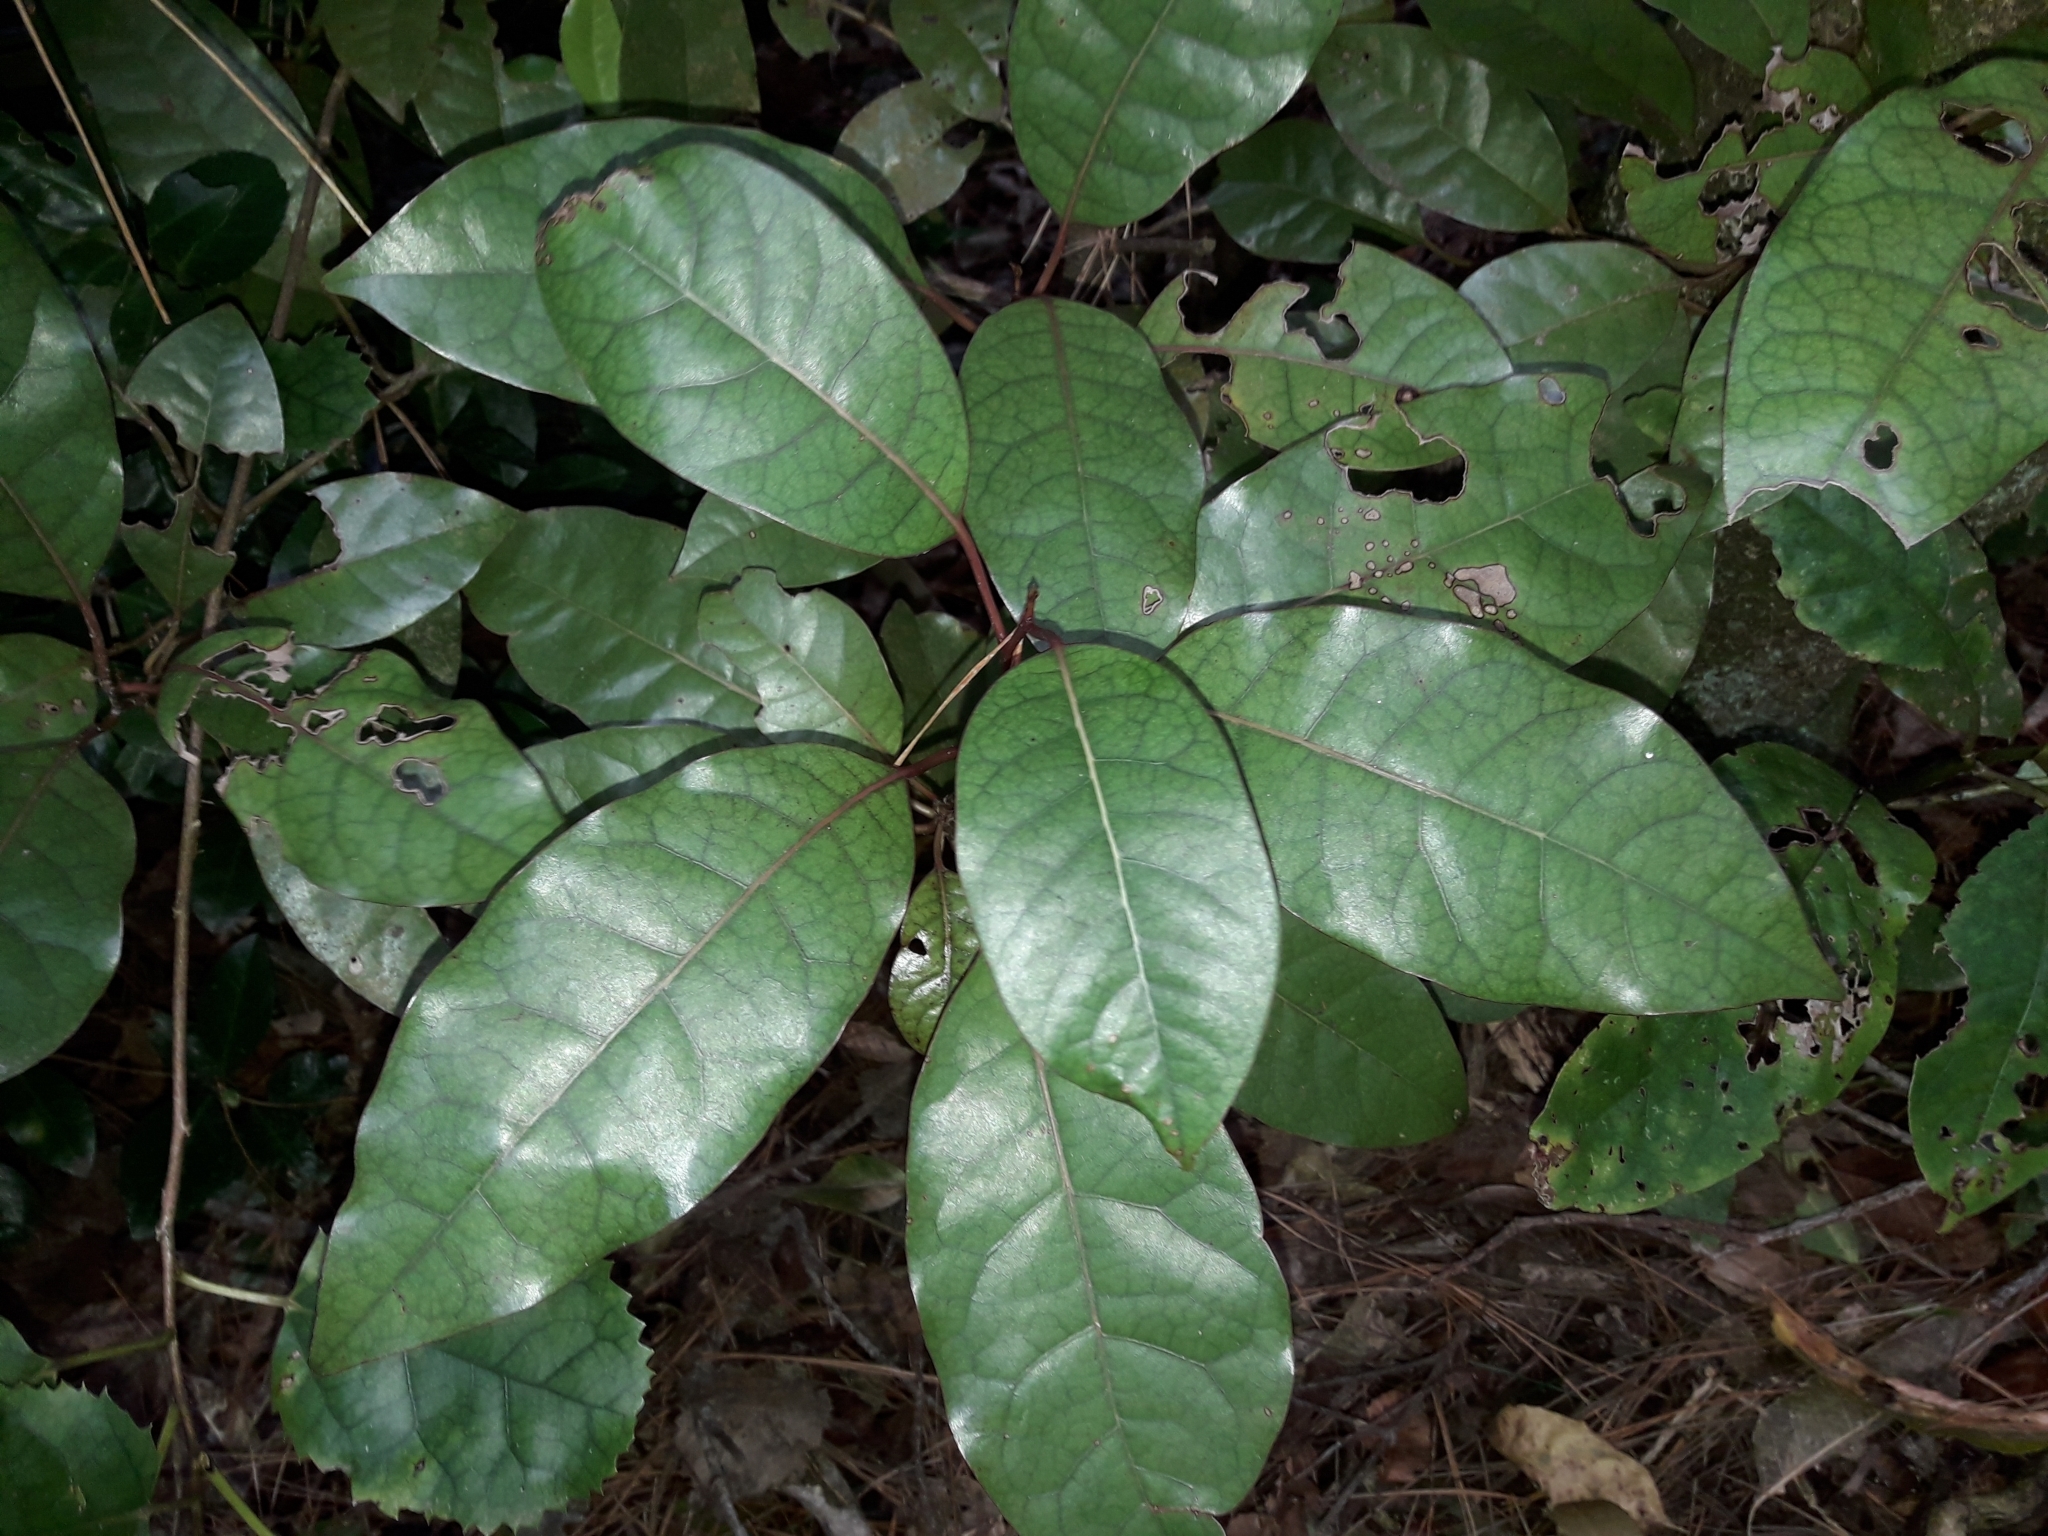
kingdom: Plantae
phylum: Tracheophyta
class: Magnoliopsida
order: Laurales
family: Lauraceae
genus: Litsea
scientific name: Litsea calicaris
